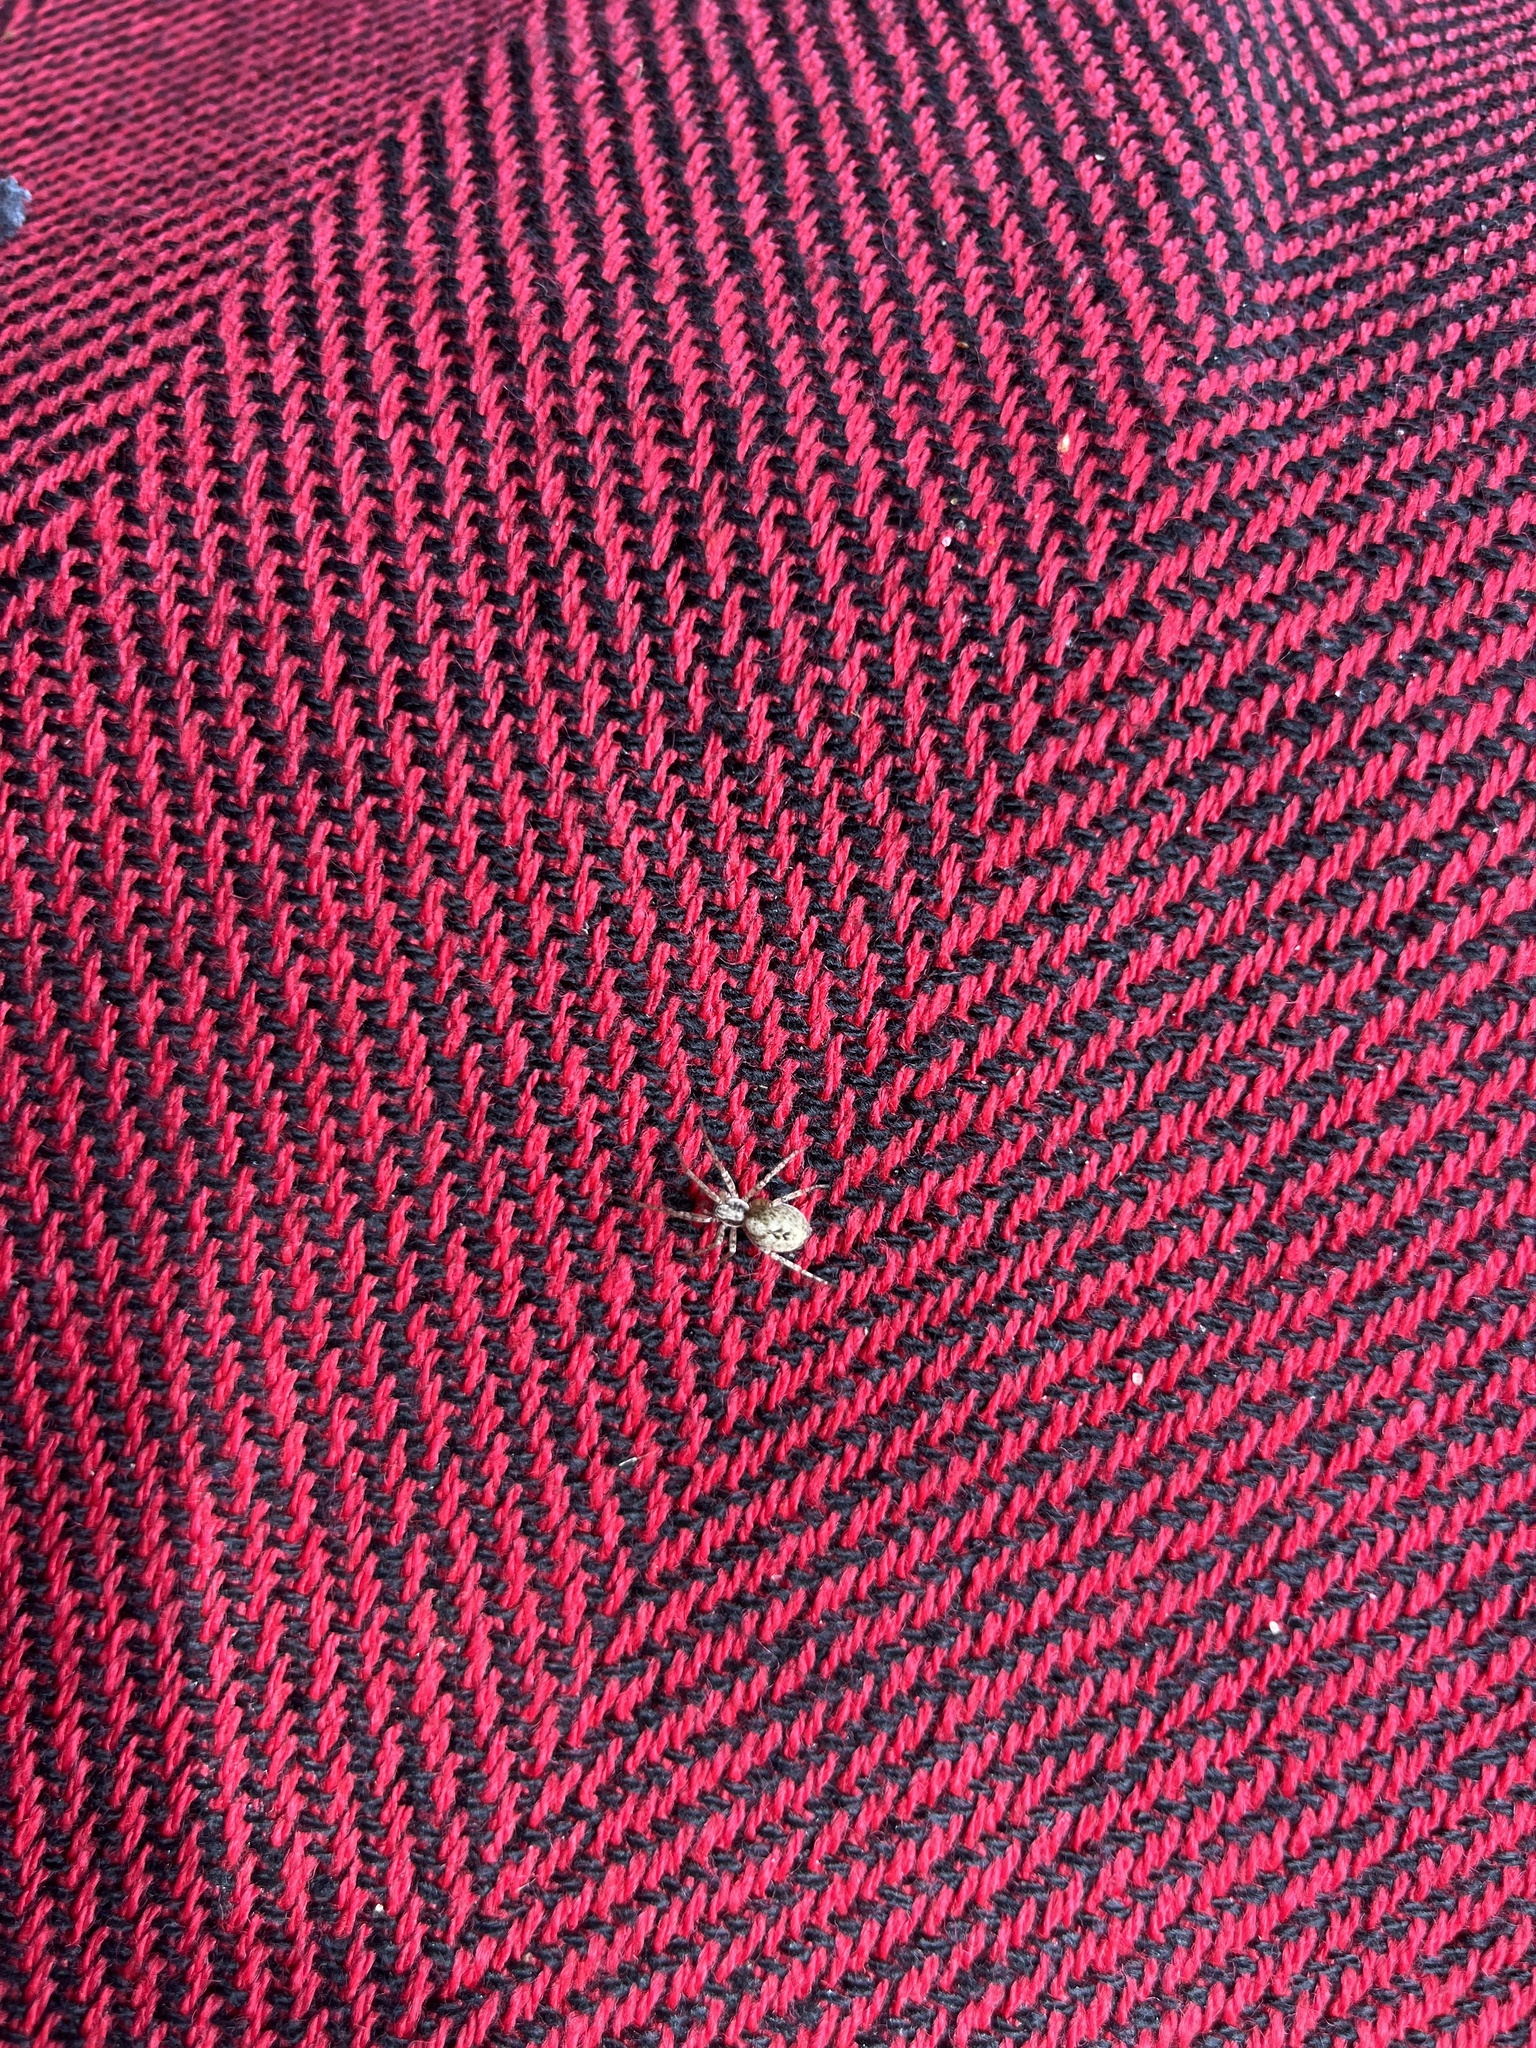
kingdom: Animalia
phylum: Arthropoda
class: Arachnida
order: Araneae
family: Anyphaenidae
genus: Anyphaena
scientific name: Anyphaena accentuata
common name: Buzzing spider
